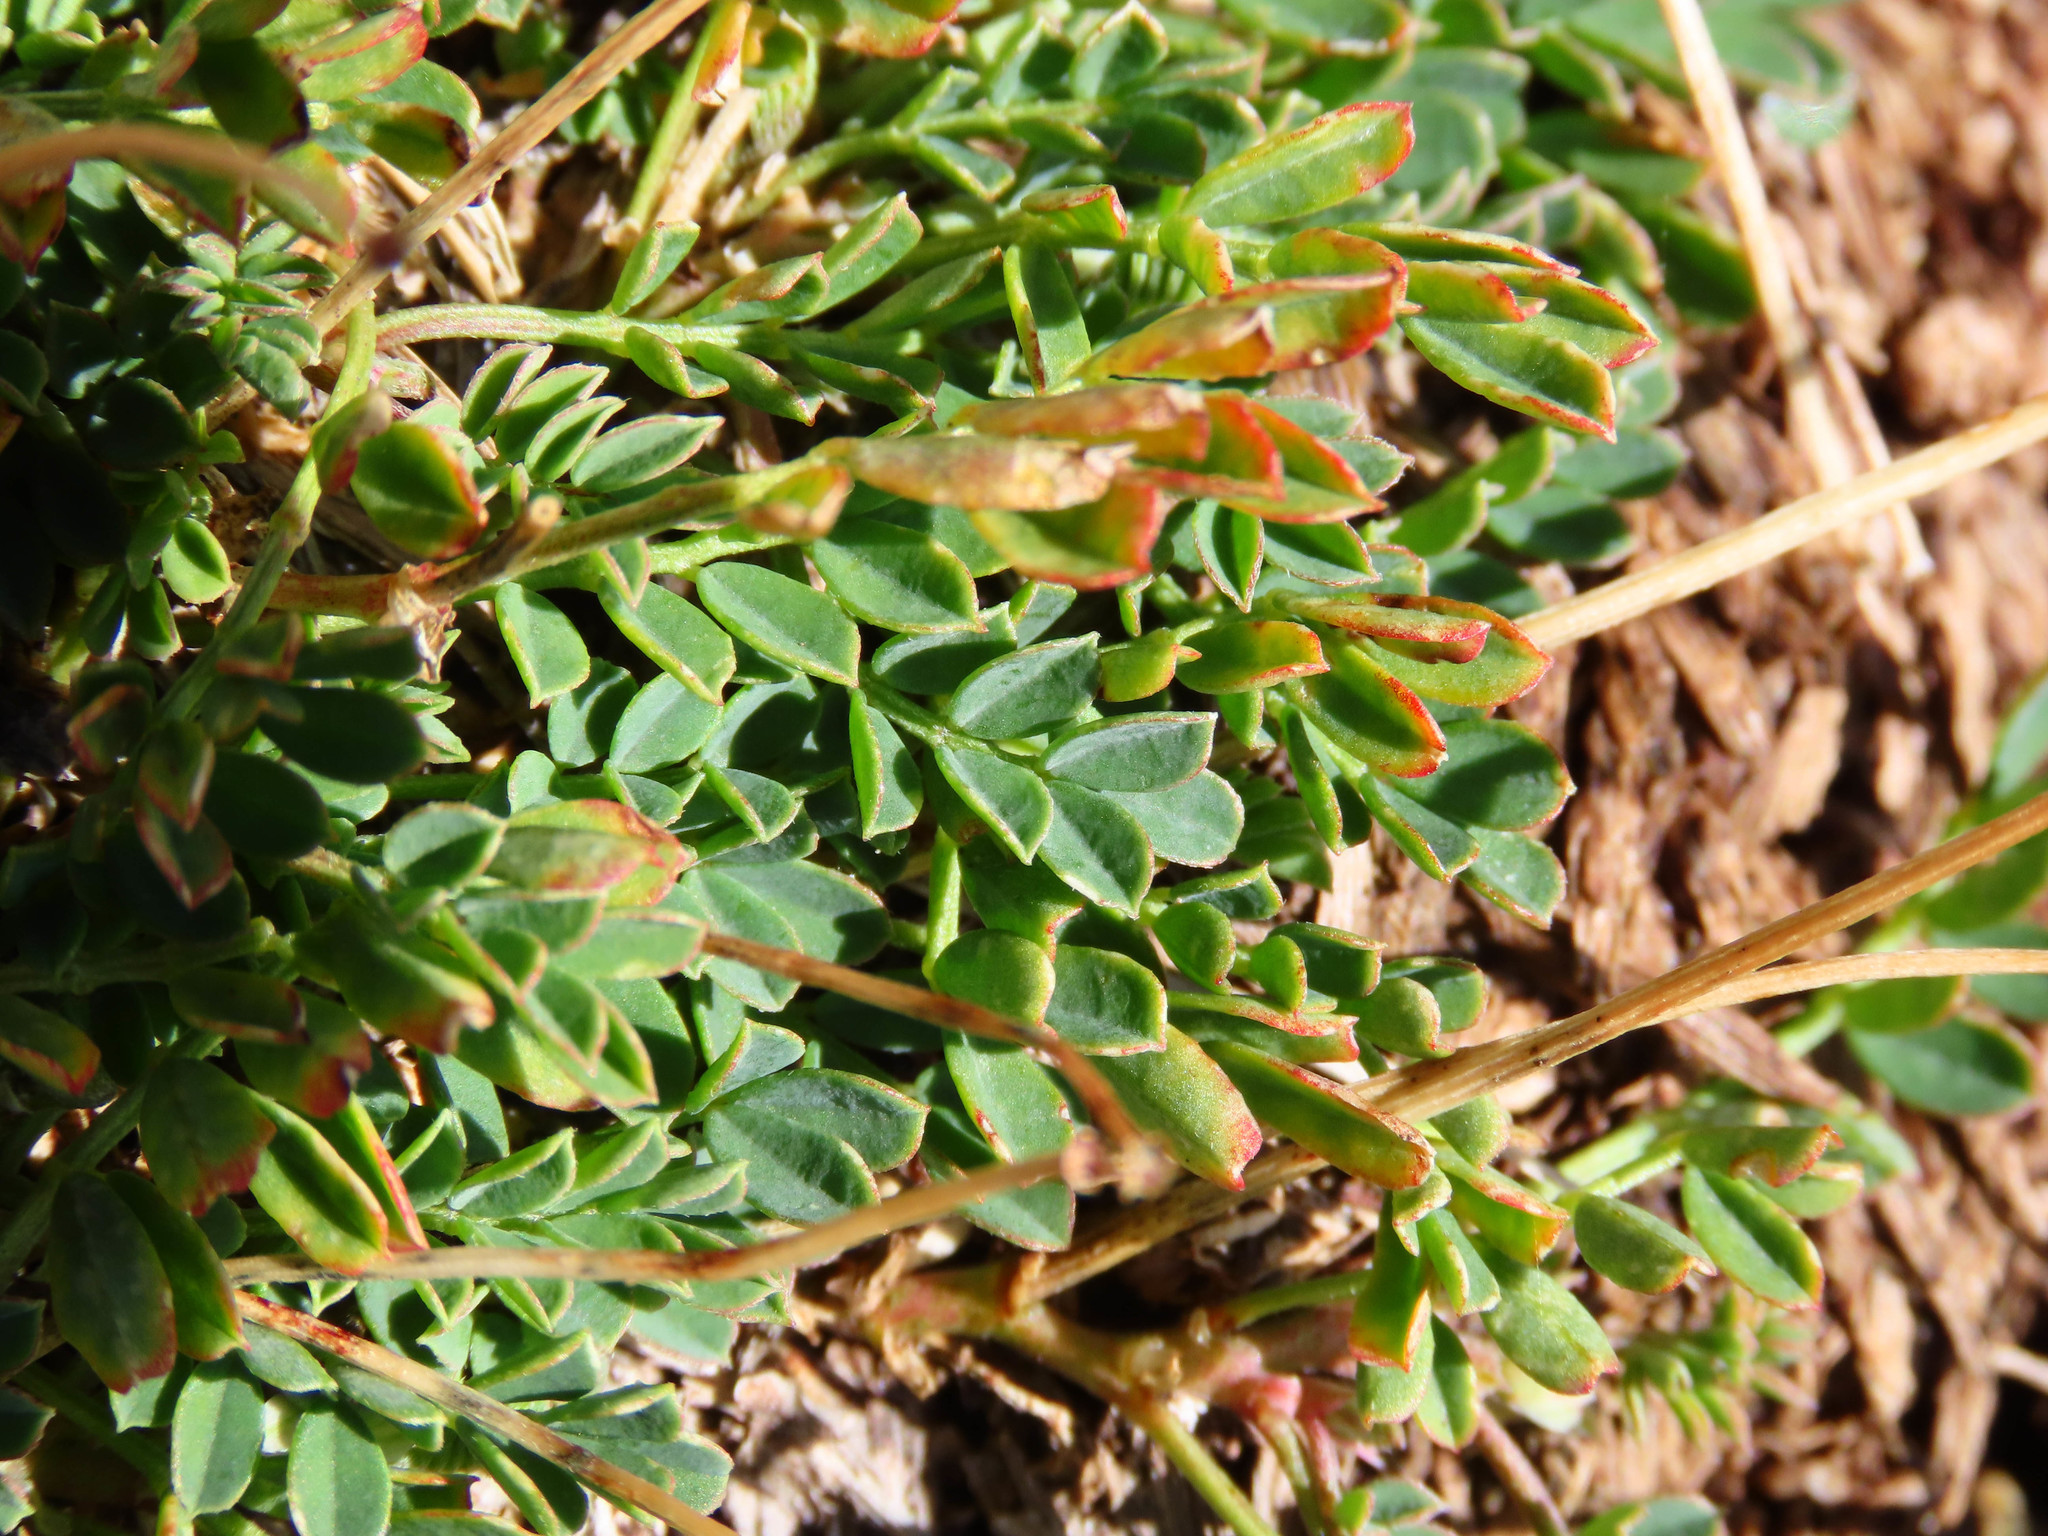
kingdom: Plantae
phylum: Tracheophyta
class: Magnoliopsida
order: Fabales
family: Fabaceae
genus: Coronilla
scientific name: Coronilla vaginalis
